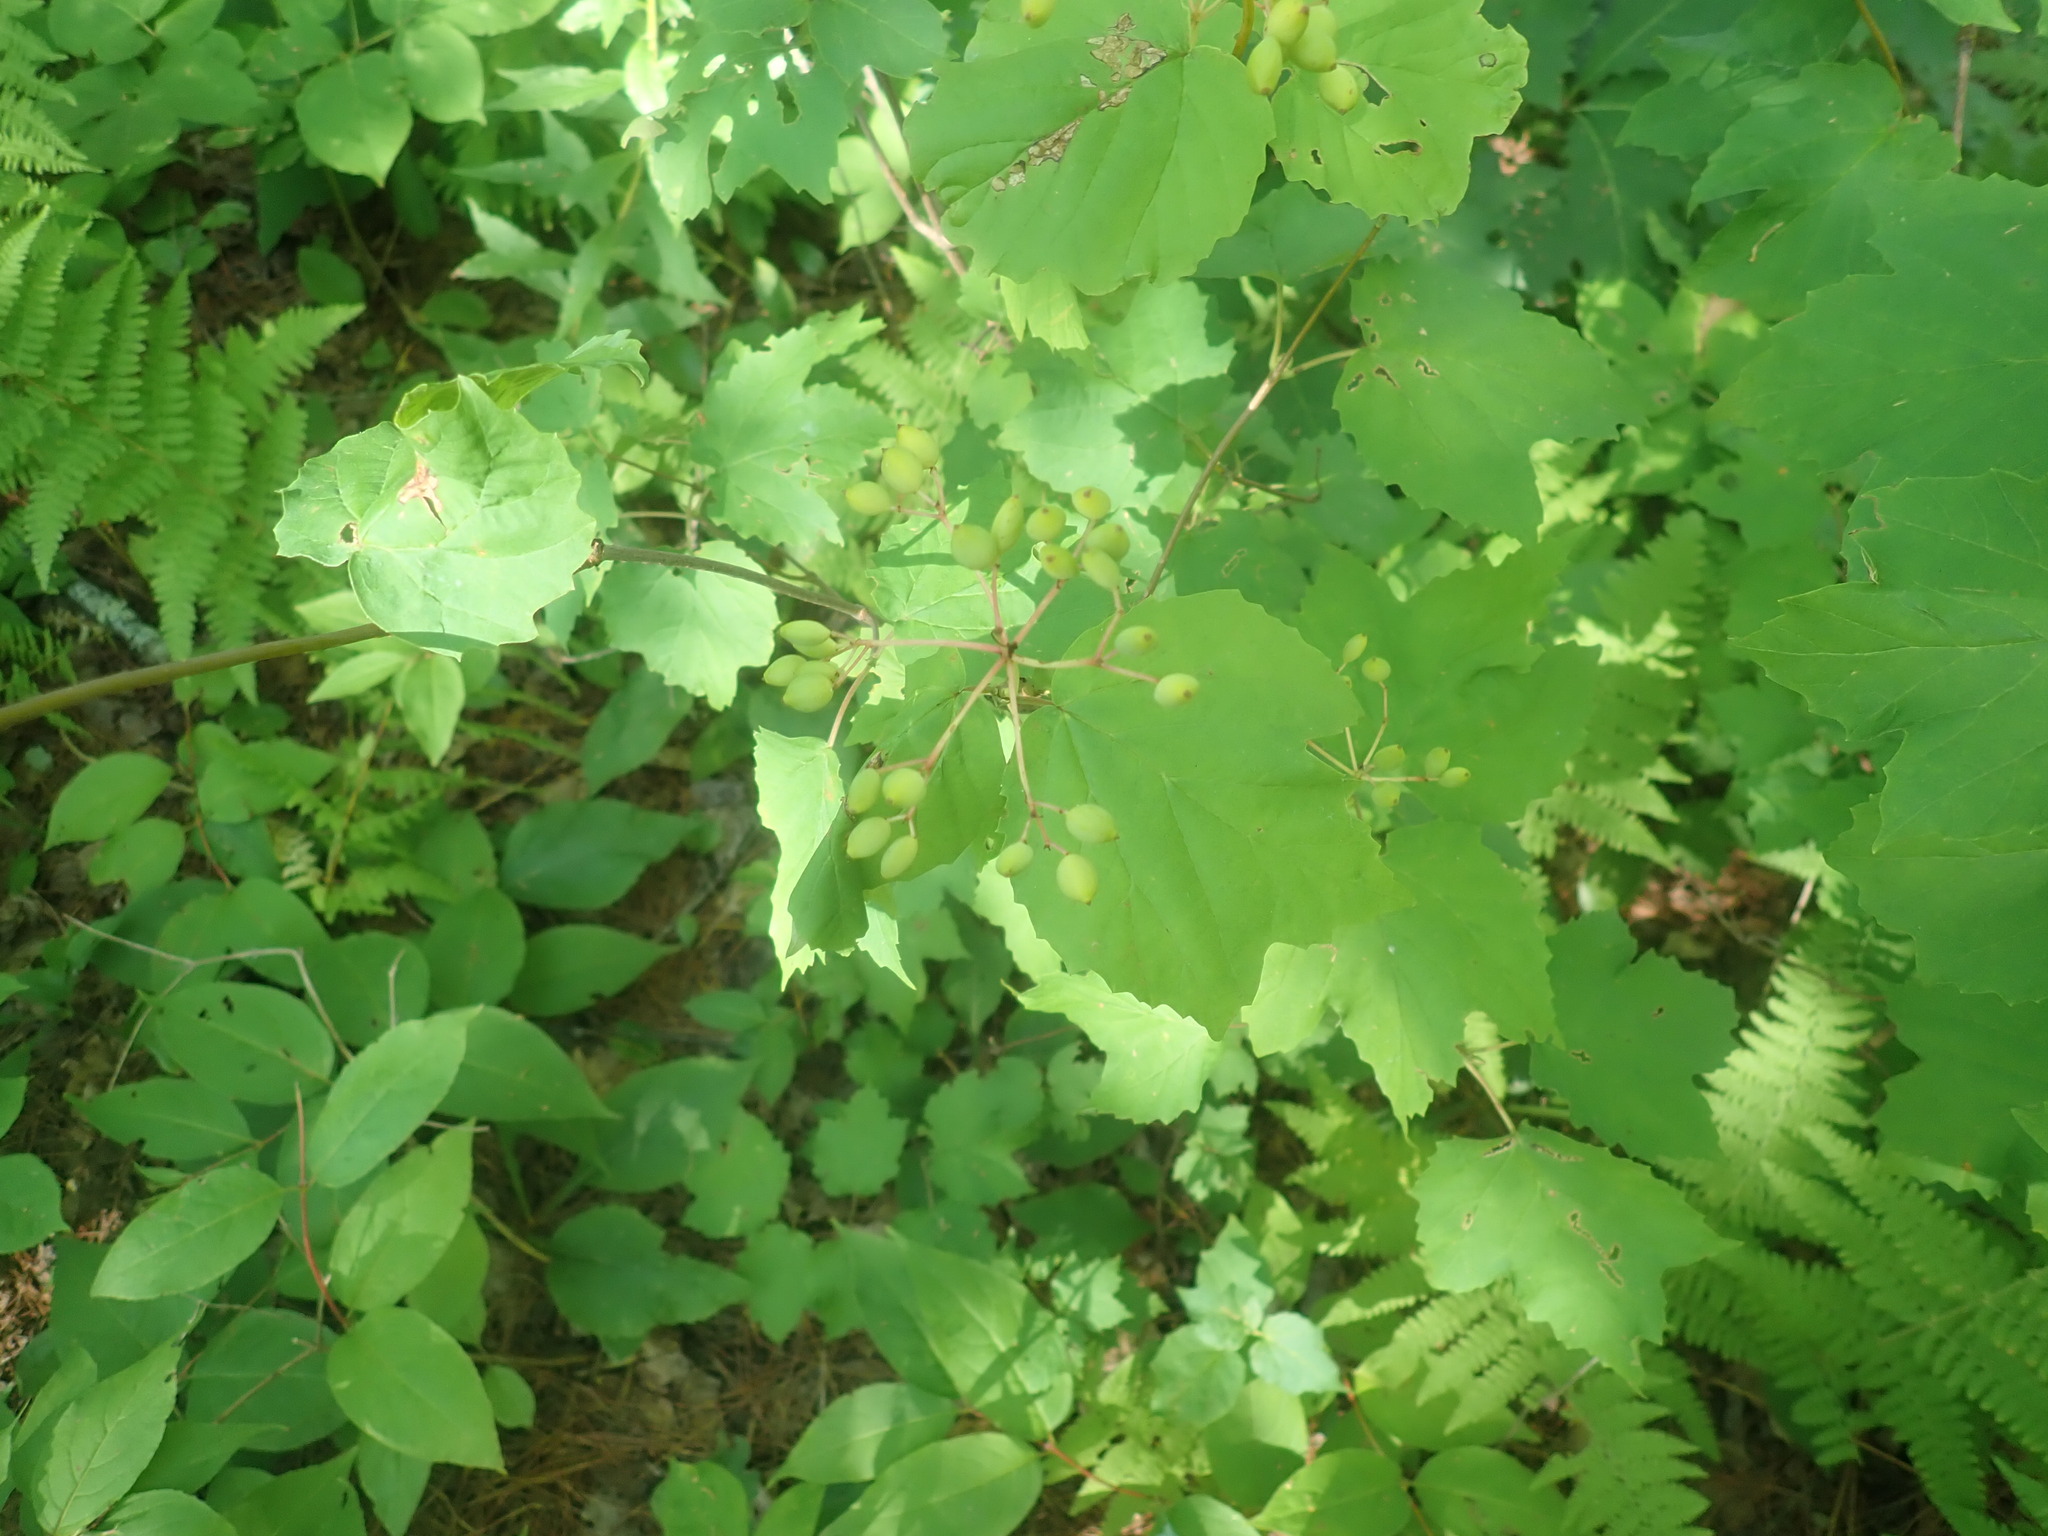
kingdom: Plantae
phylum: Tracheophyta
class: Magnoliopsida
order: Dipsacales
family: Viburnaceae
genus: Viburnum
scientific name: Viburnum acerifolium
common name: Dockmackie
